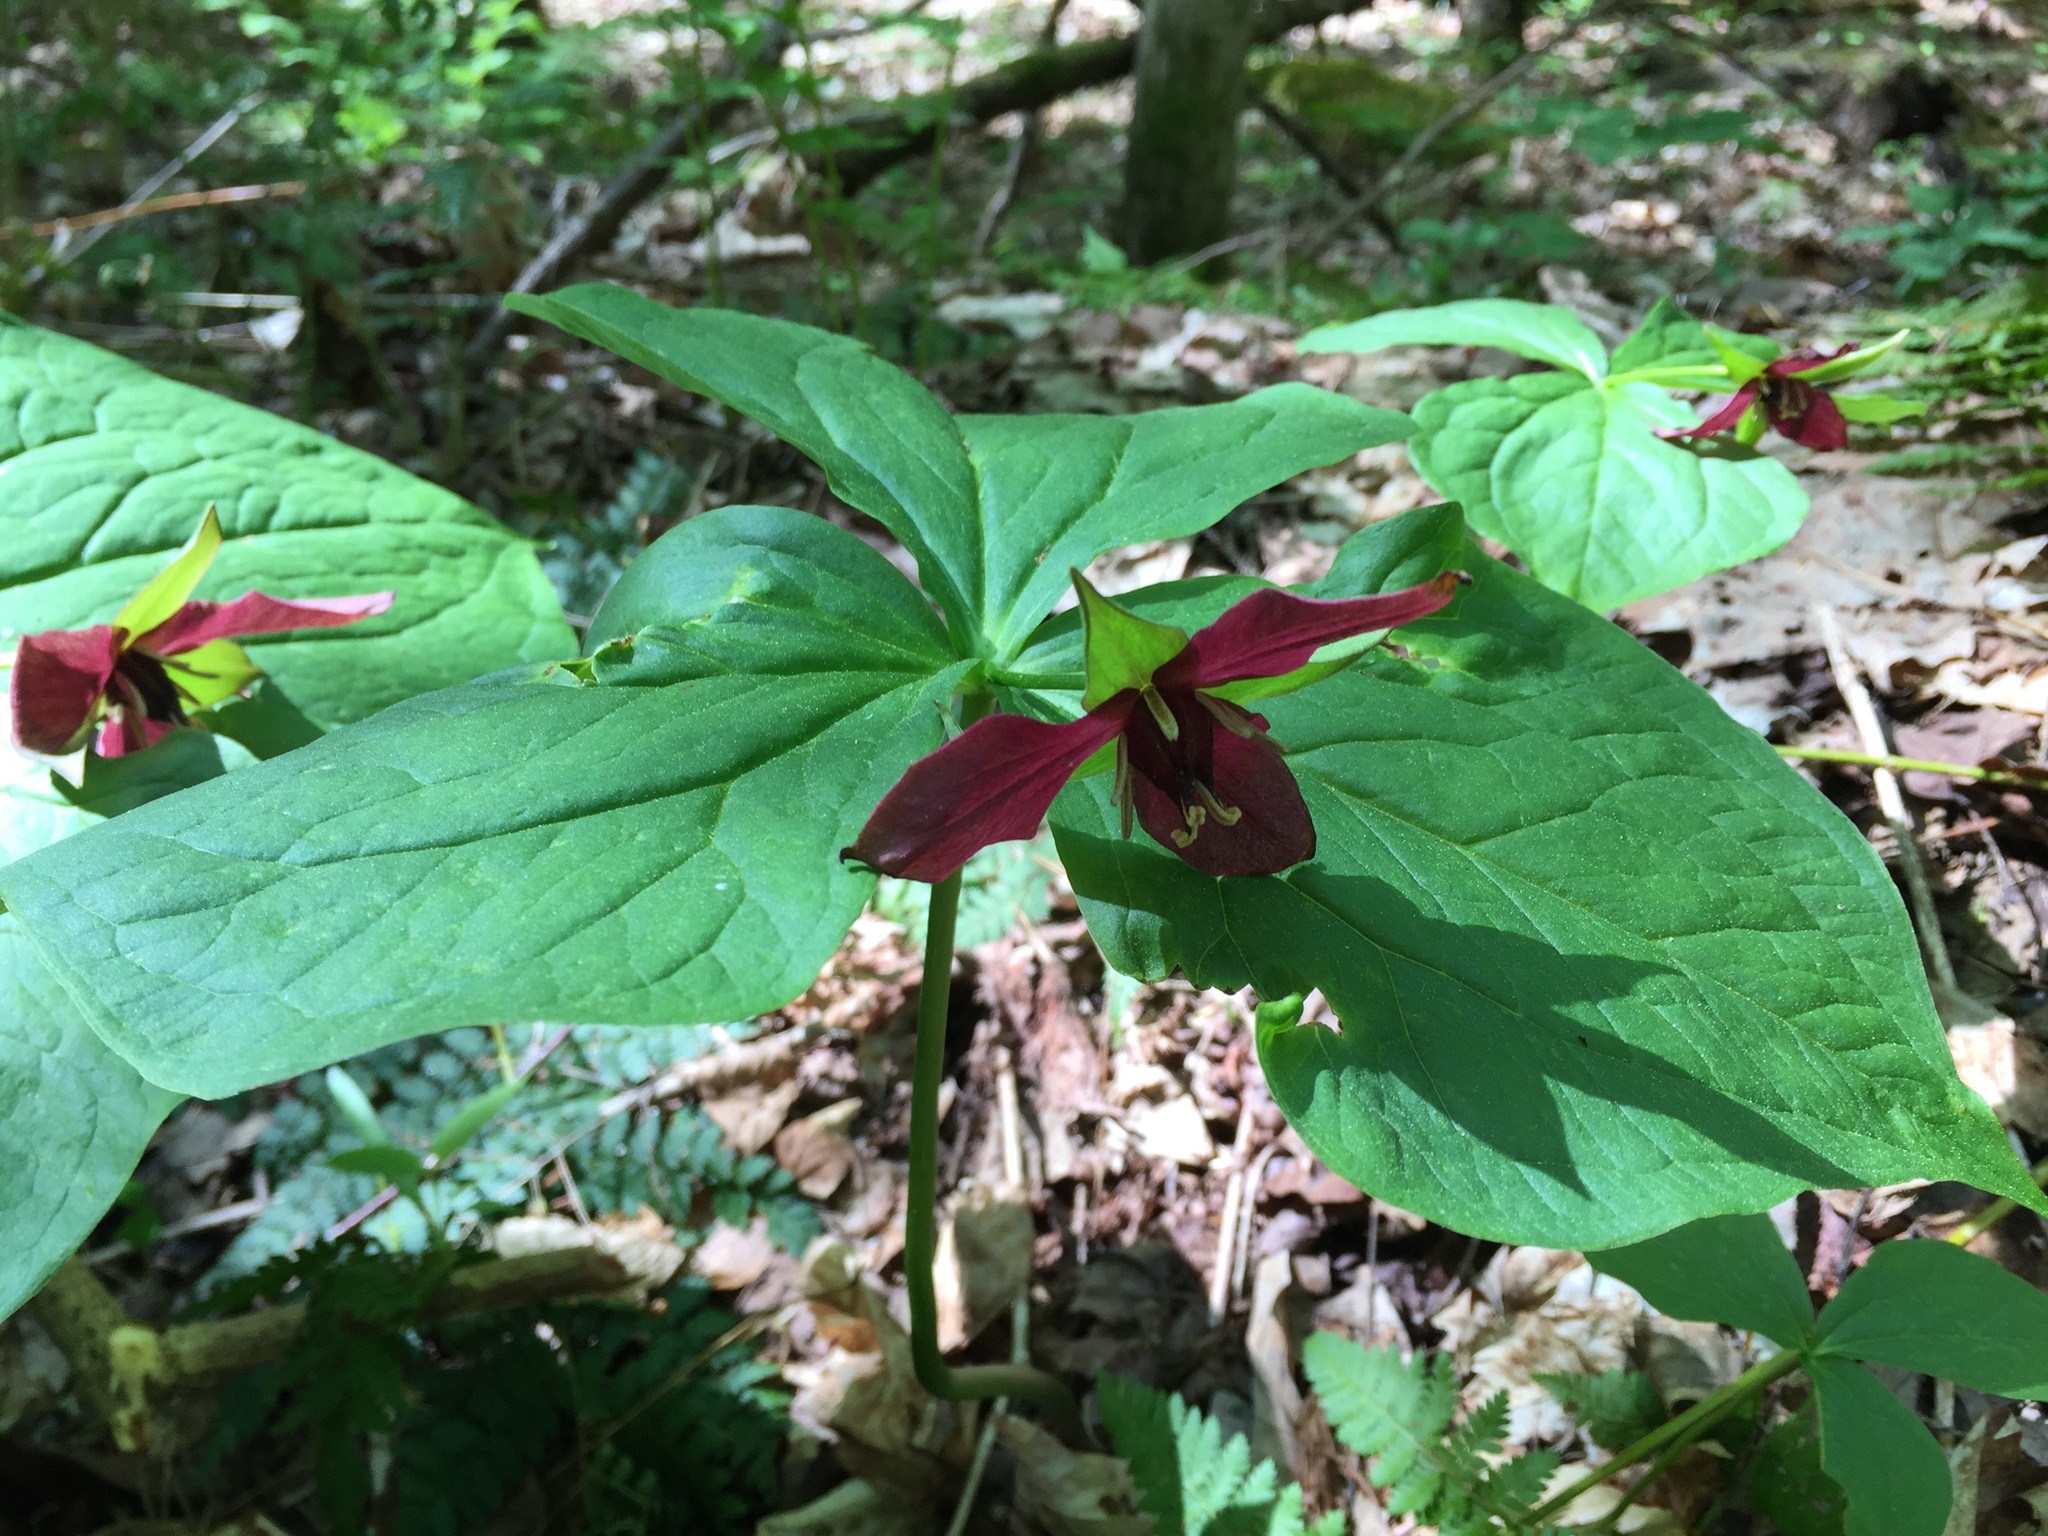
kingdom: Plantae
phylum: Tracheophyta
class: Liliopsida
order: Liliales
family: Melanthiaceae
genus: Trillium
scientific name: Trillium erectum
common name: Purple trillium
